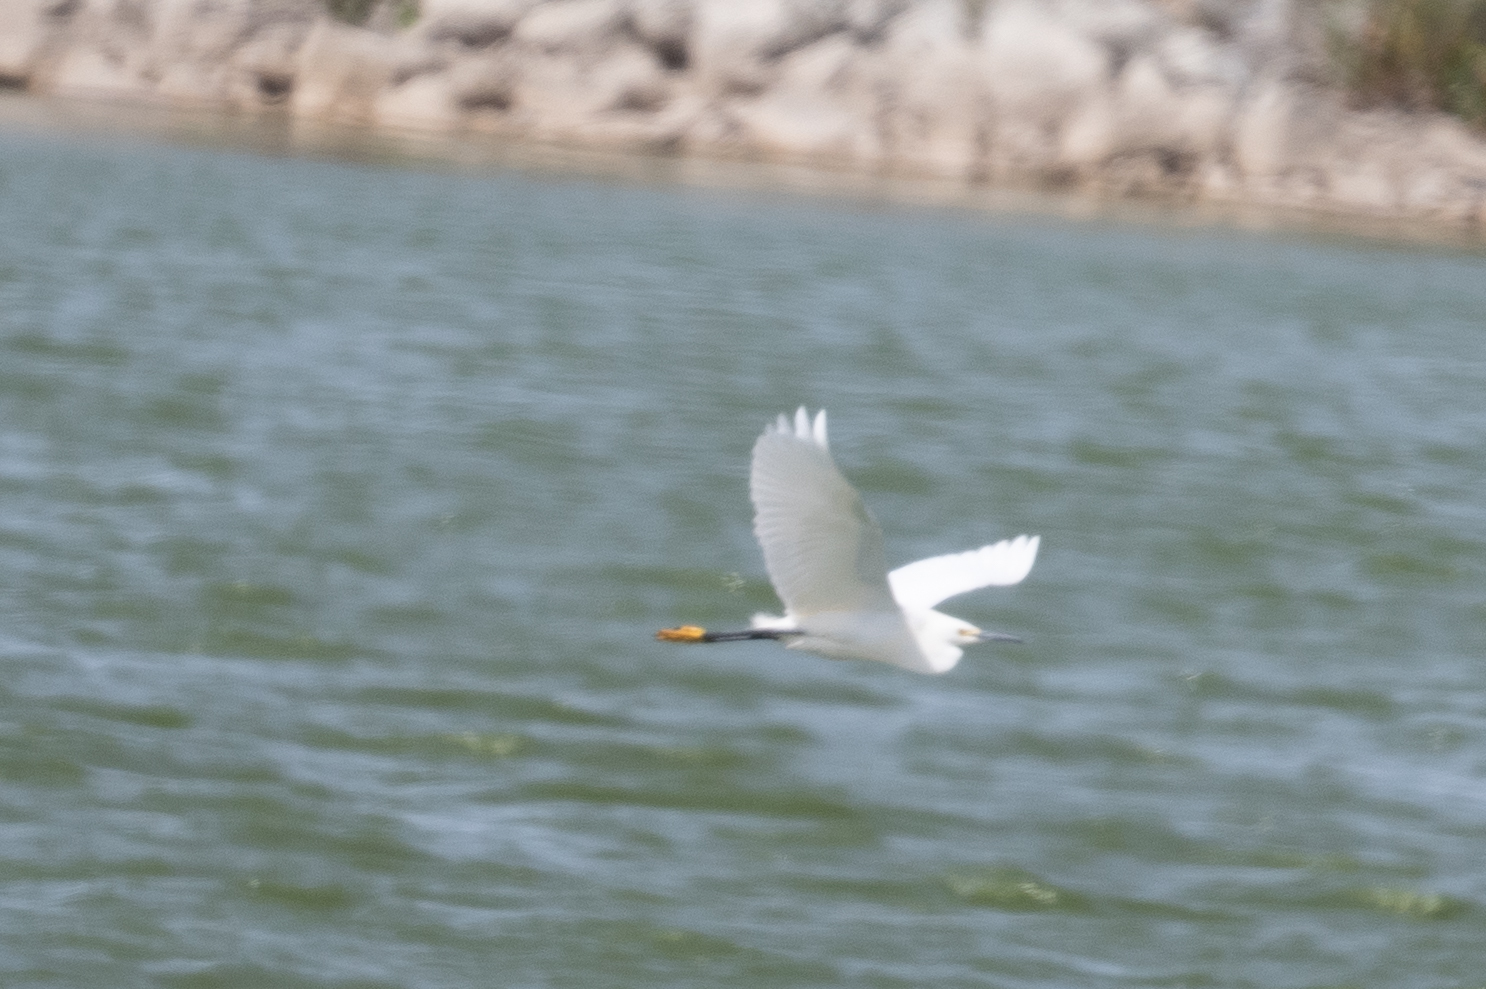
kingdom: Animalia
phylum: Chordata
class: Aves
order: Pelecaniformes
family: Ardeidae
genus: Egretta
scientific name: Egretta thula
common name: Snowy egret
